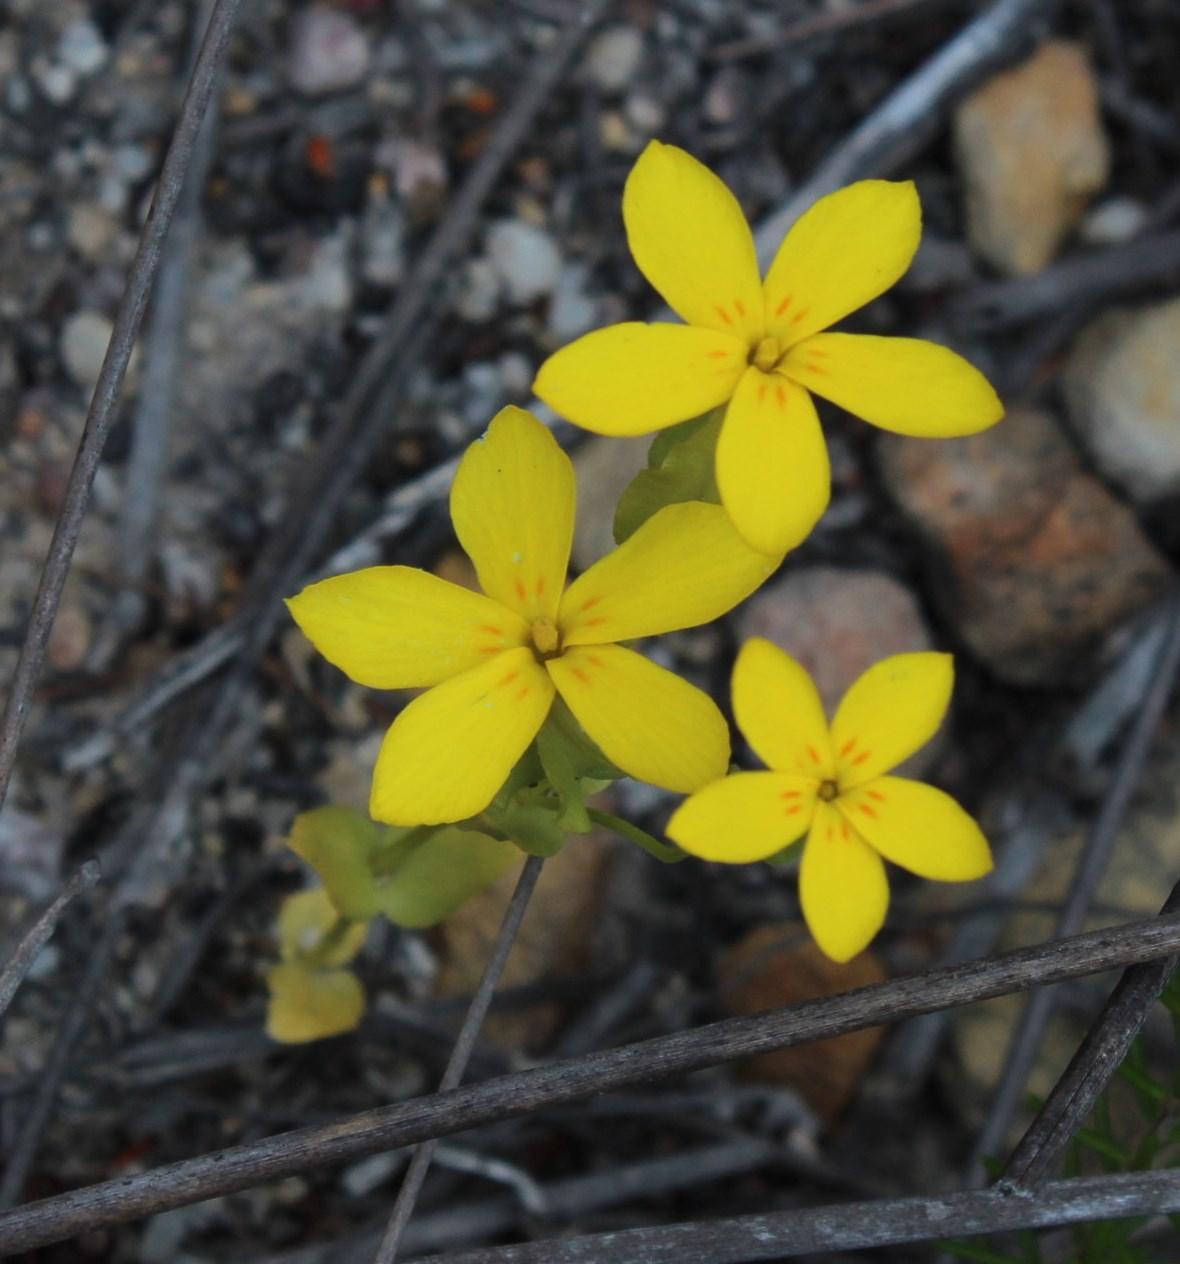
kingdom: Plantae
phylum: Tracheophyta
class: Magnoliopsida
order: Gentianales
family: Gentianaceae
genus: Sebaea
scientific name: Sebaea exacoides
